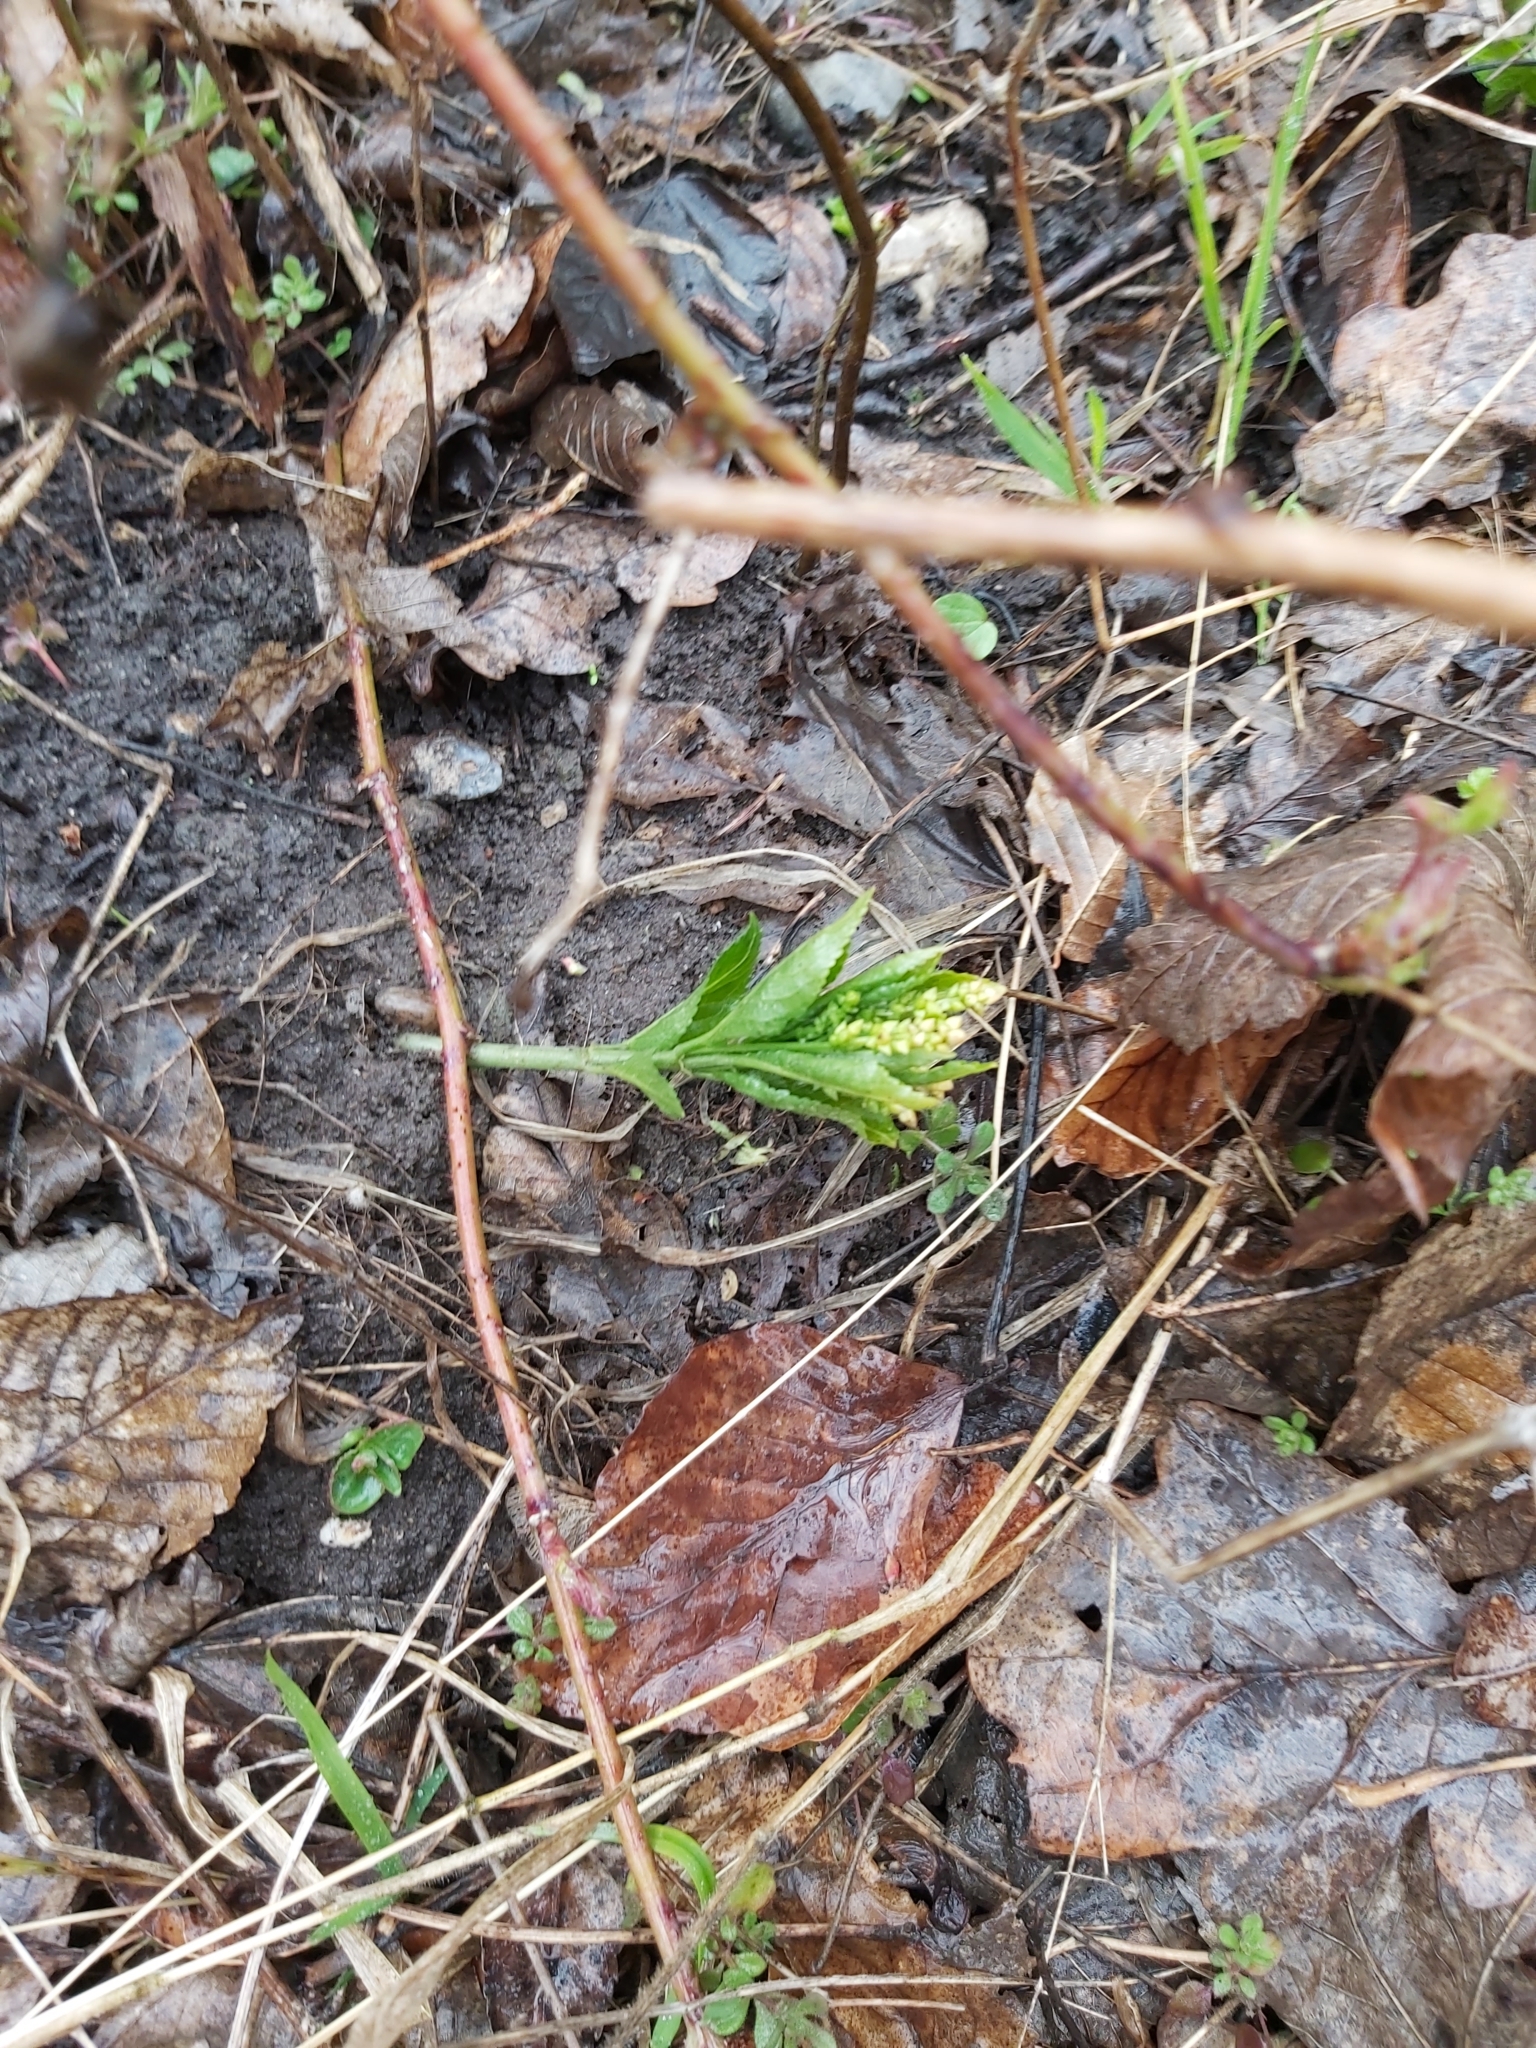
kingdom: Plantae
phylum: Tracheophyta
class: Magnoliopsida
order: Malpighiales
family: Euphorbiaceae
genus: Mercurialis
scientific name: Mercurialis perennis
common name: Dog mercury
